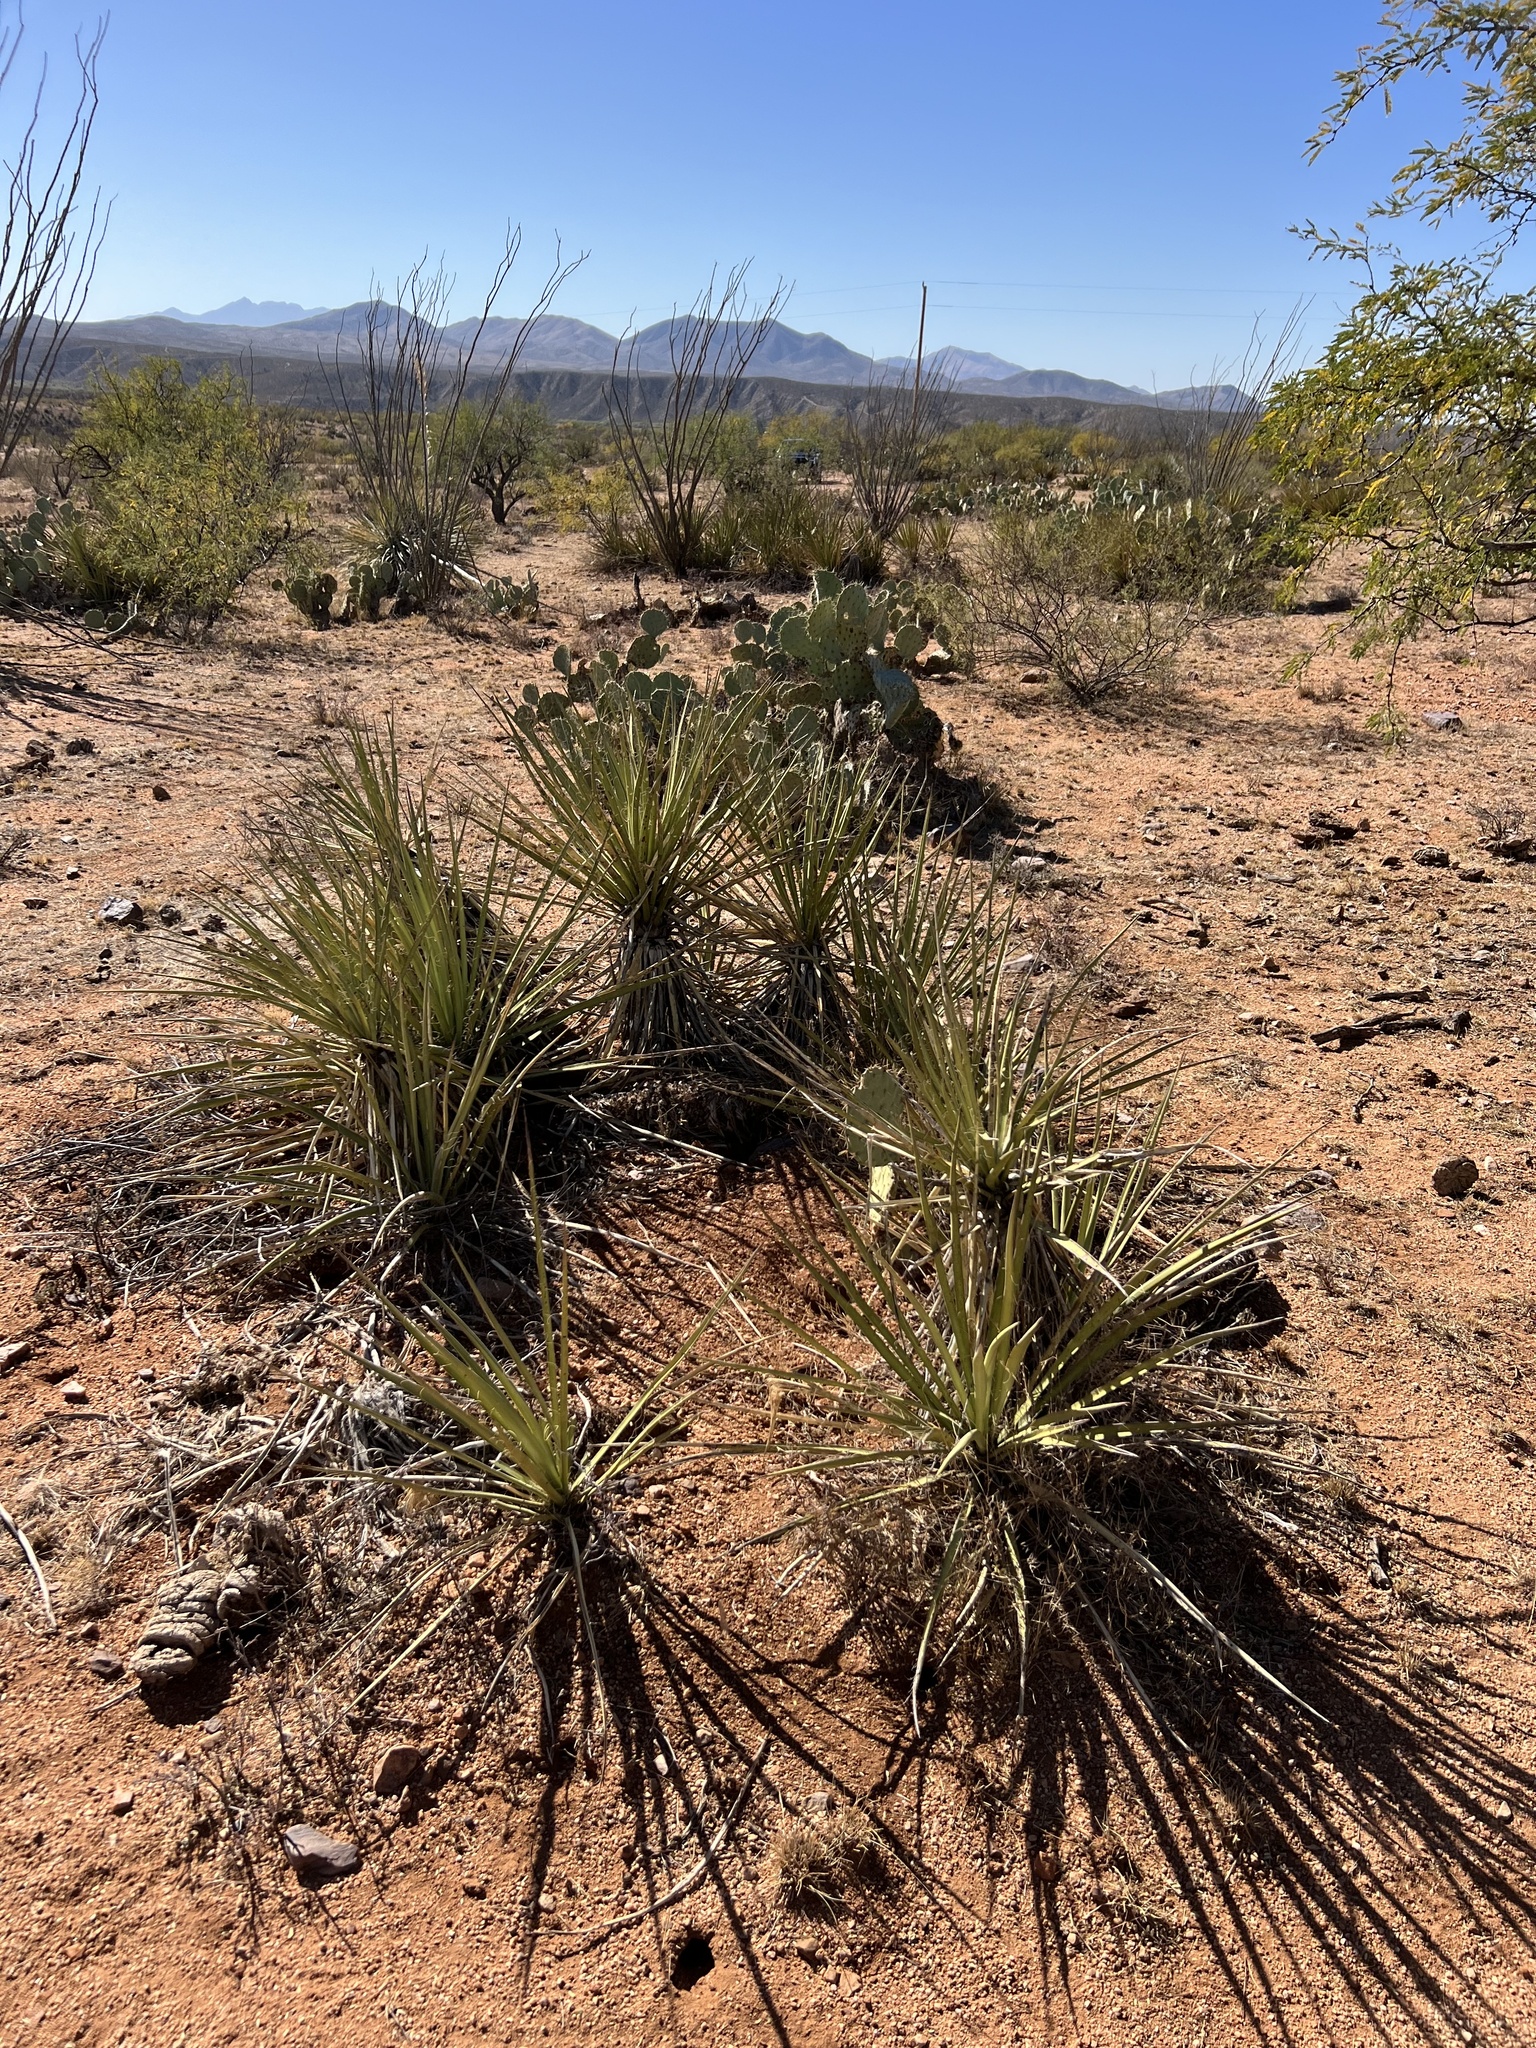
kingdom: Plantae
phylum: Tracheophyta
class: Liliopsida
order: Asparagales
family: Asparagaceae
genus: Yucca
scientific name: Yucca baccata
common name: Banana yucca
